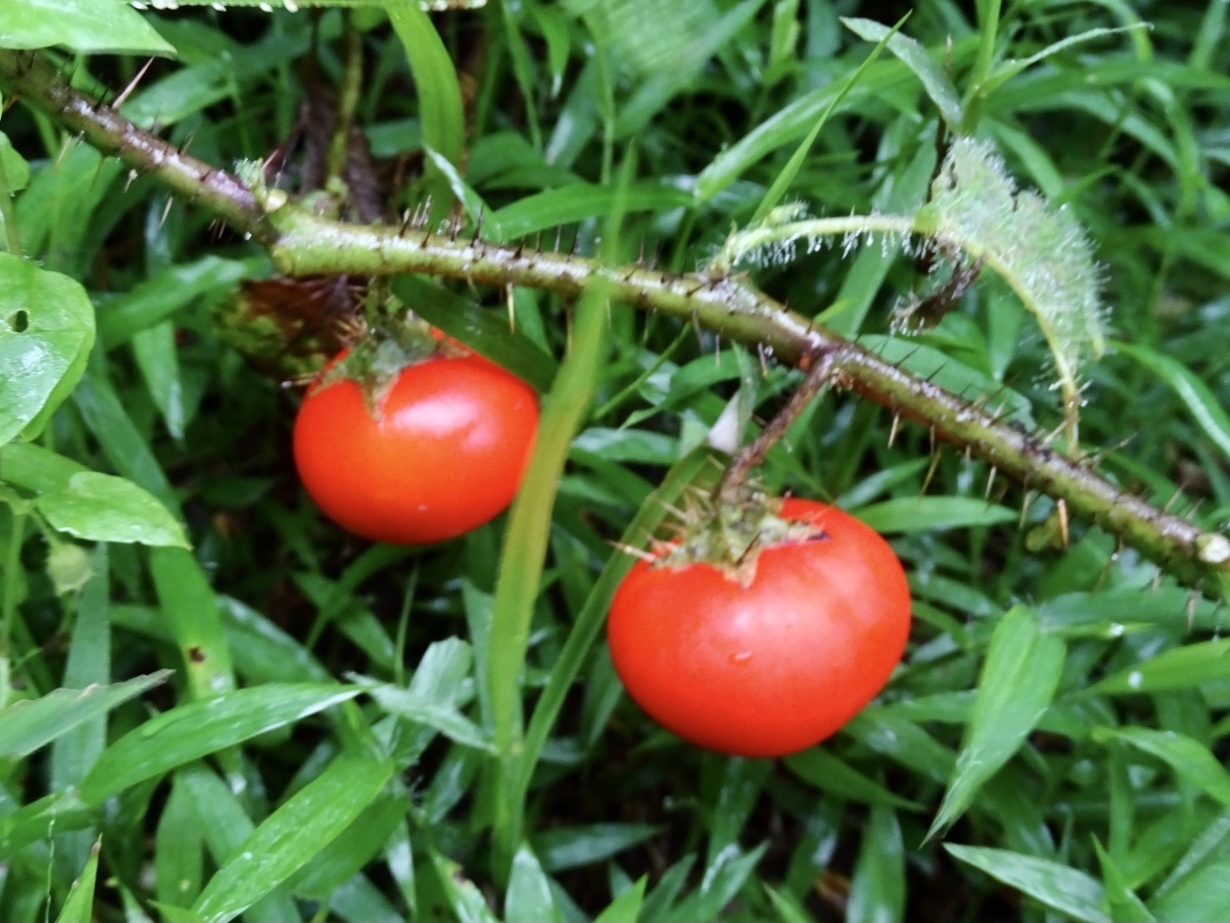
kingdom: Plantae
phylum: Tracheophyta
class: Magnoliopsida
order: Solanales
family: Solanaceae
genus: Solanum
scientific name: Solanum capsicoides
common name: Cockroach berry
